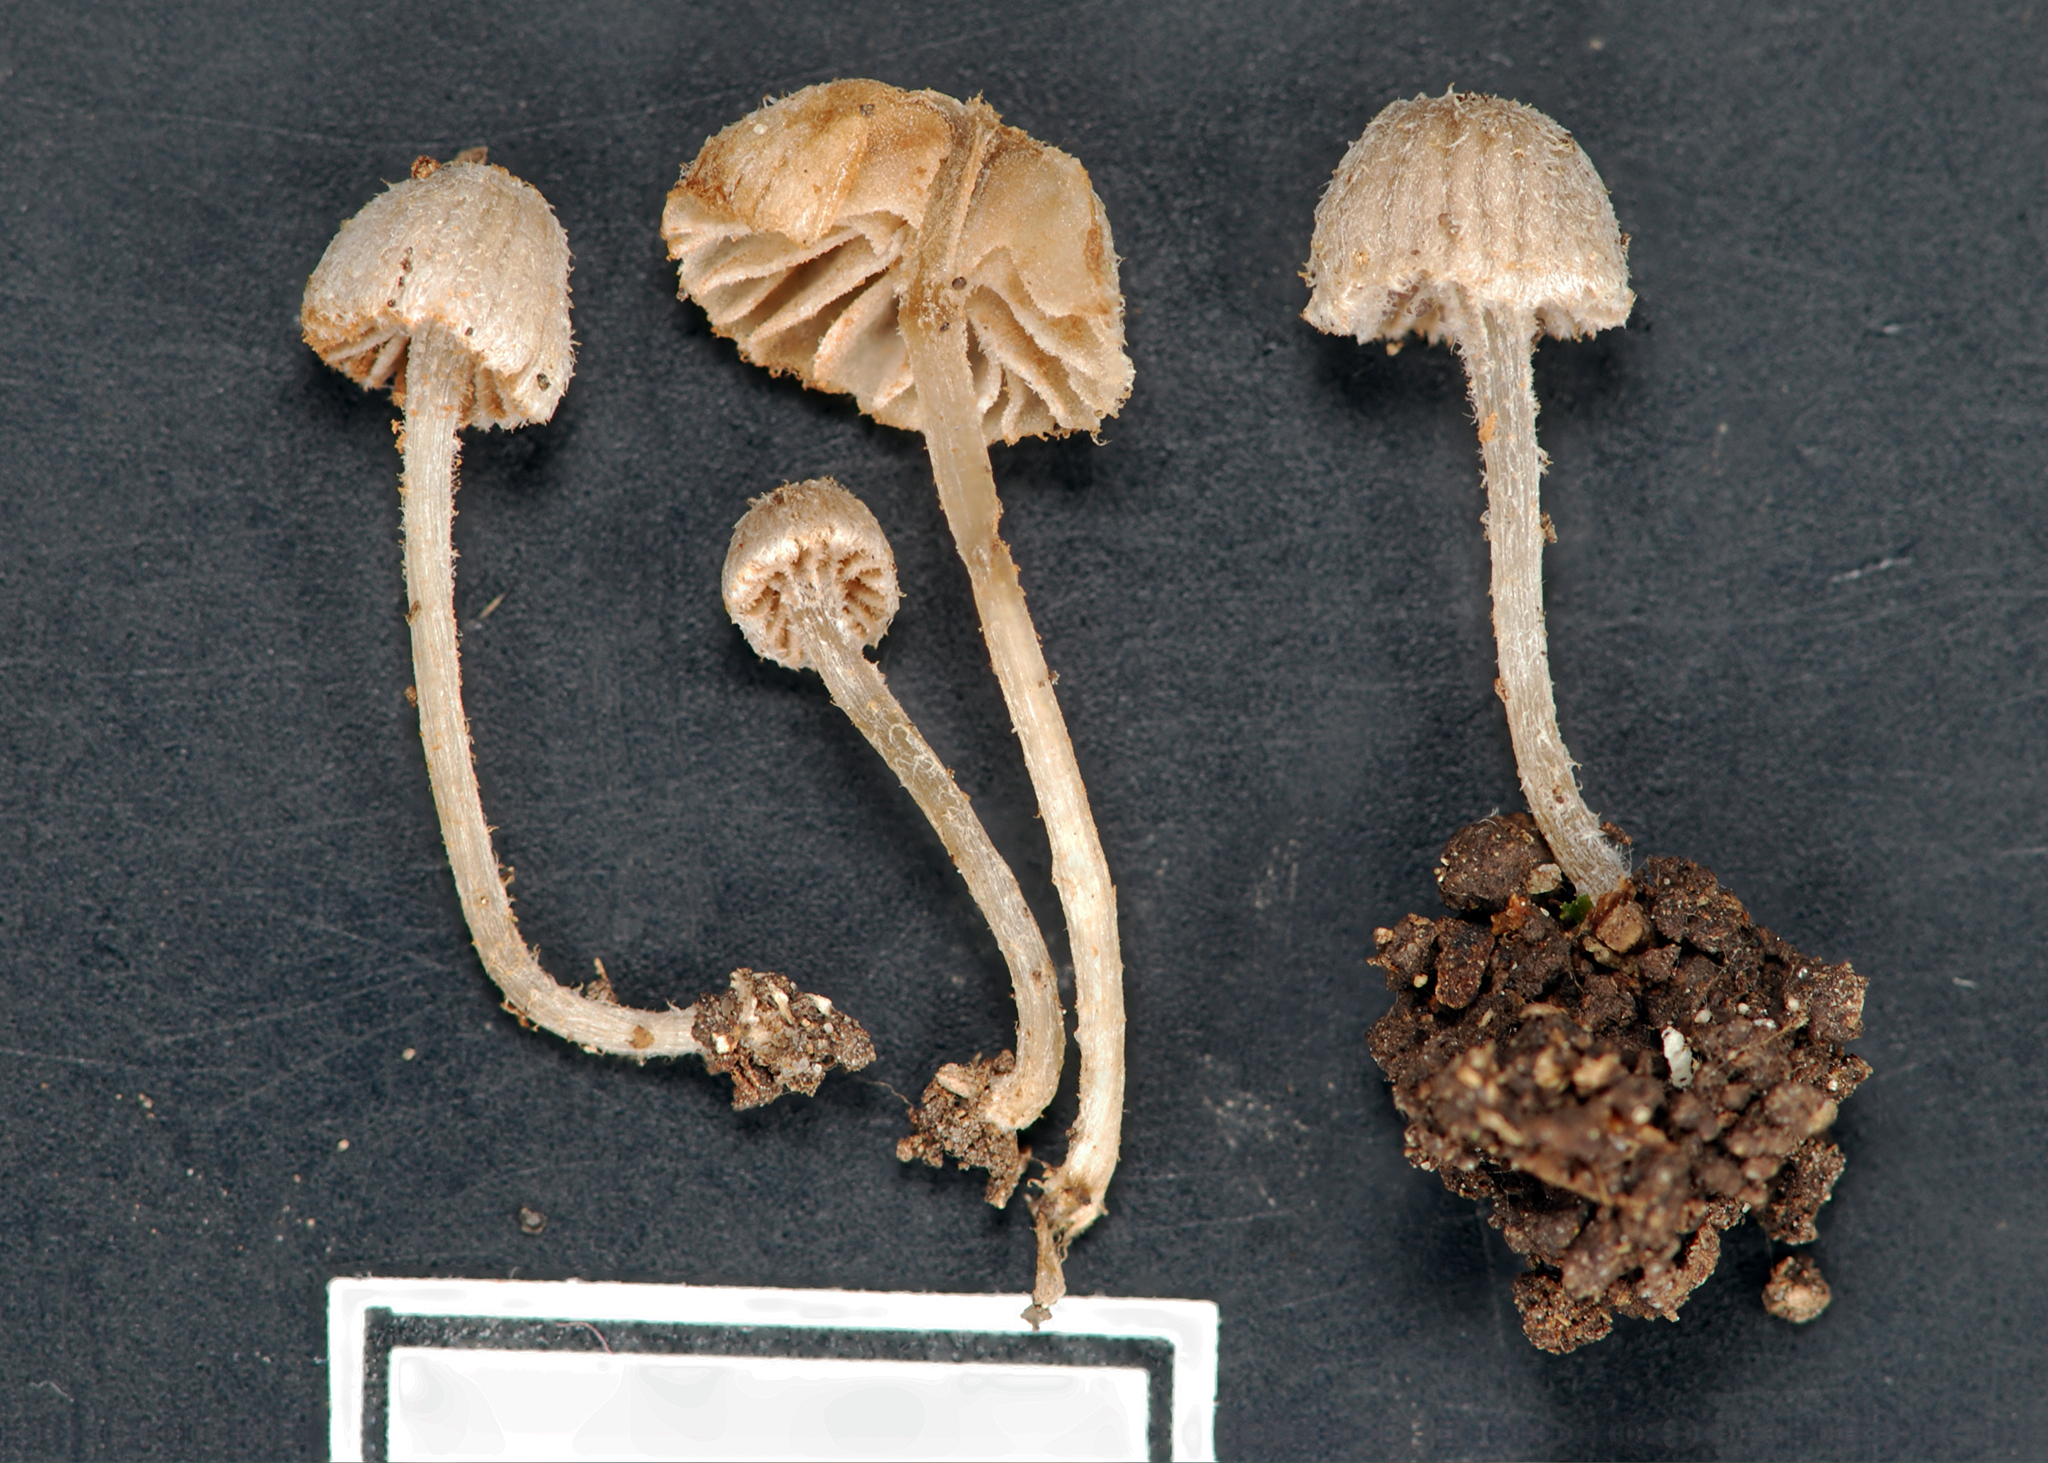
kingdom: Fungi
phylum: Basidiomycota
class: Agaricomycetes
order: Agaricales
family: Entolomataceae
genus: Entoloma
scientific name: Entoloma horakii
